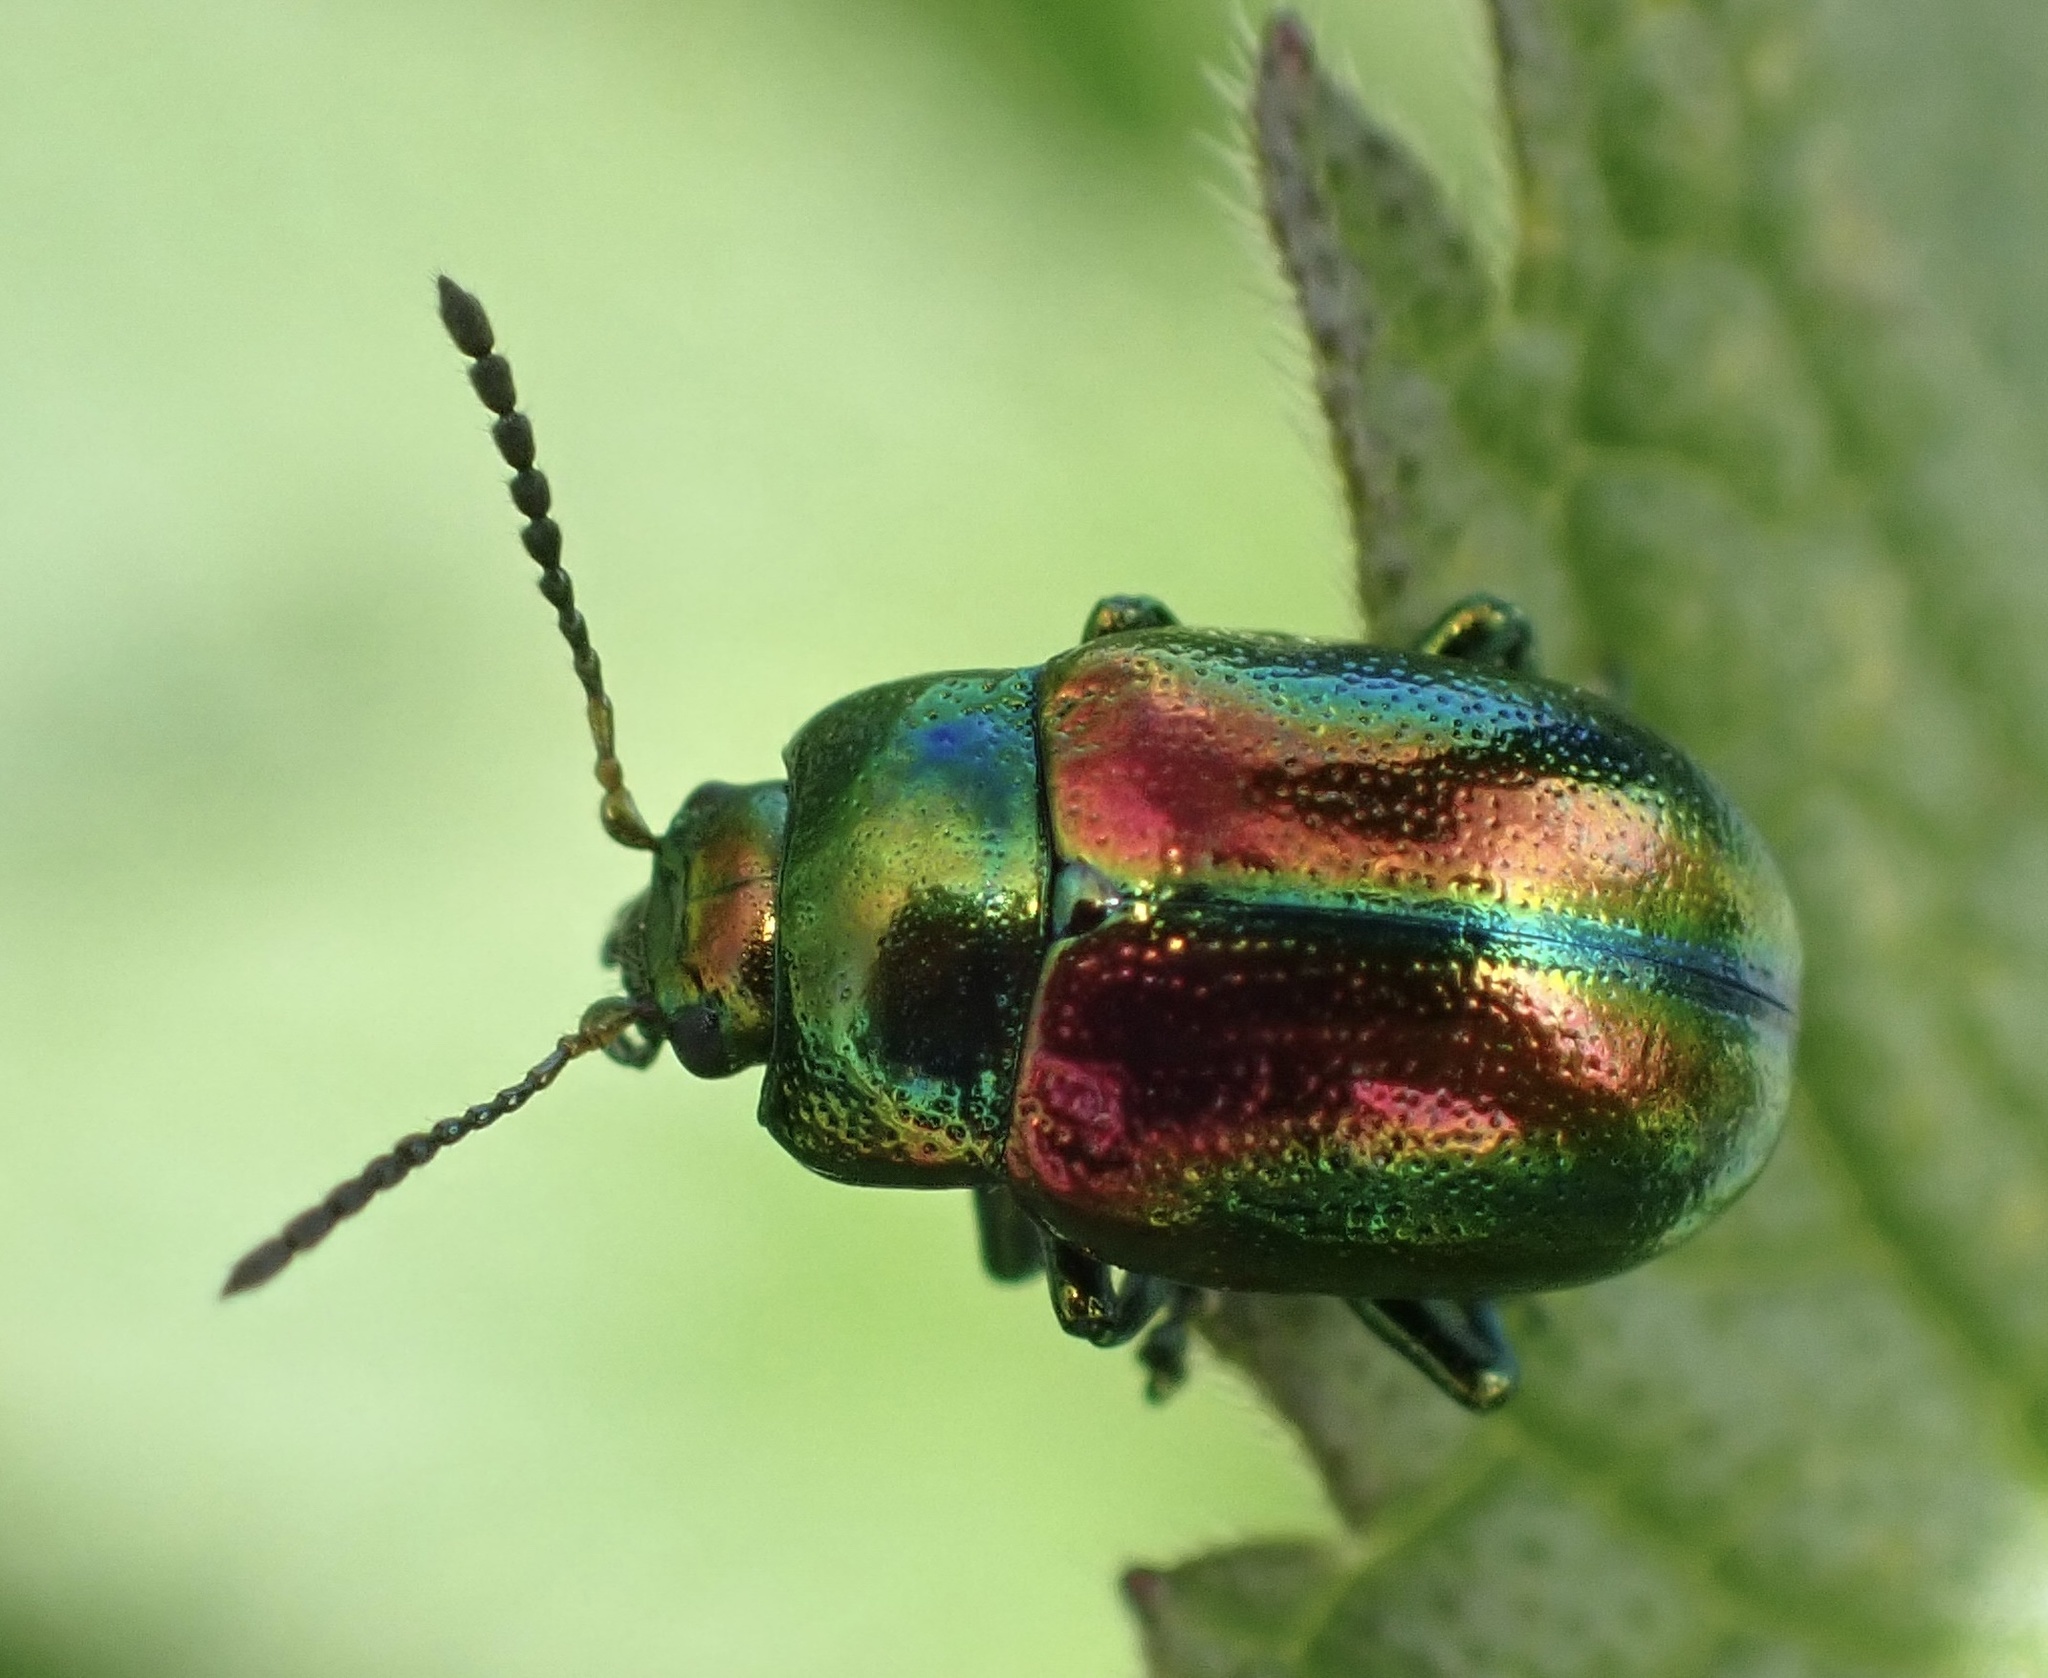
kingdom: Animalia
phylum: Arthropoda
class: Insecta
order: Coleoptera
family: Chrysomelidae
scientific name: Chrysomelidae
